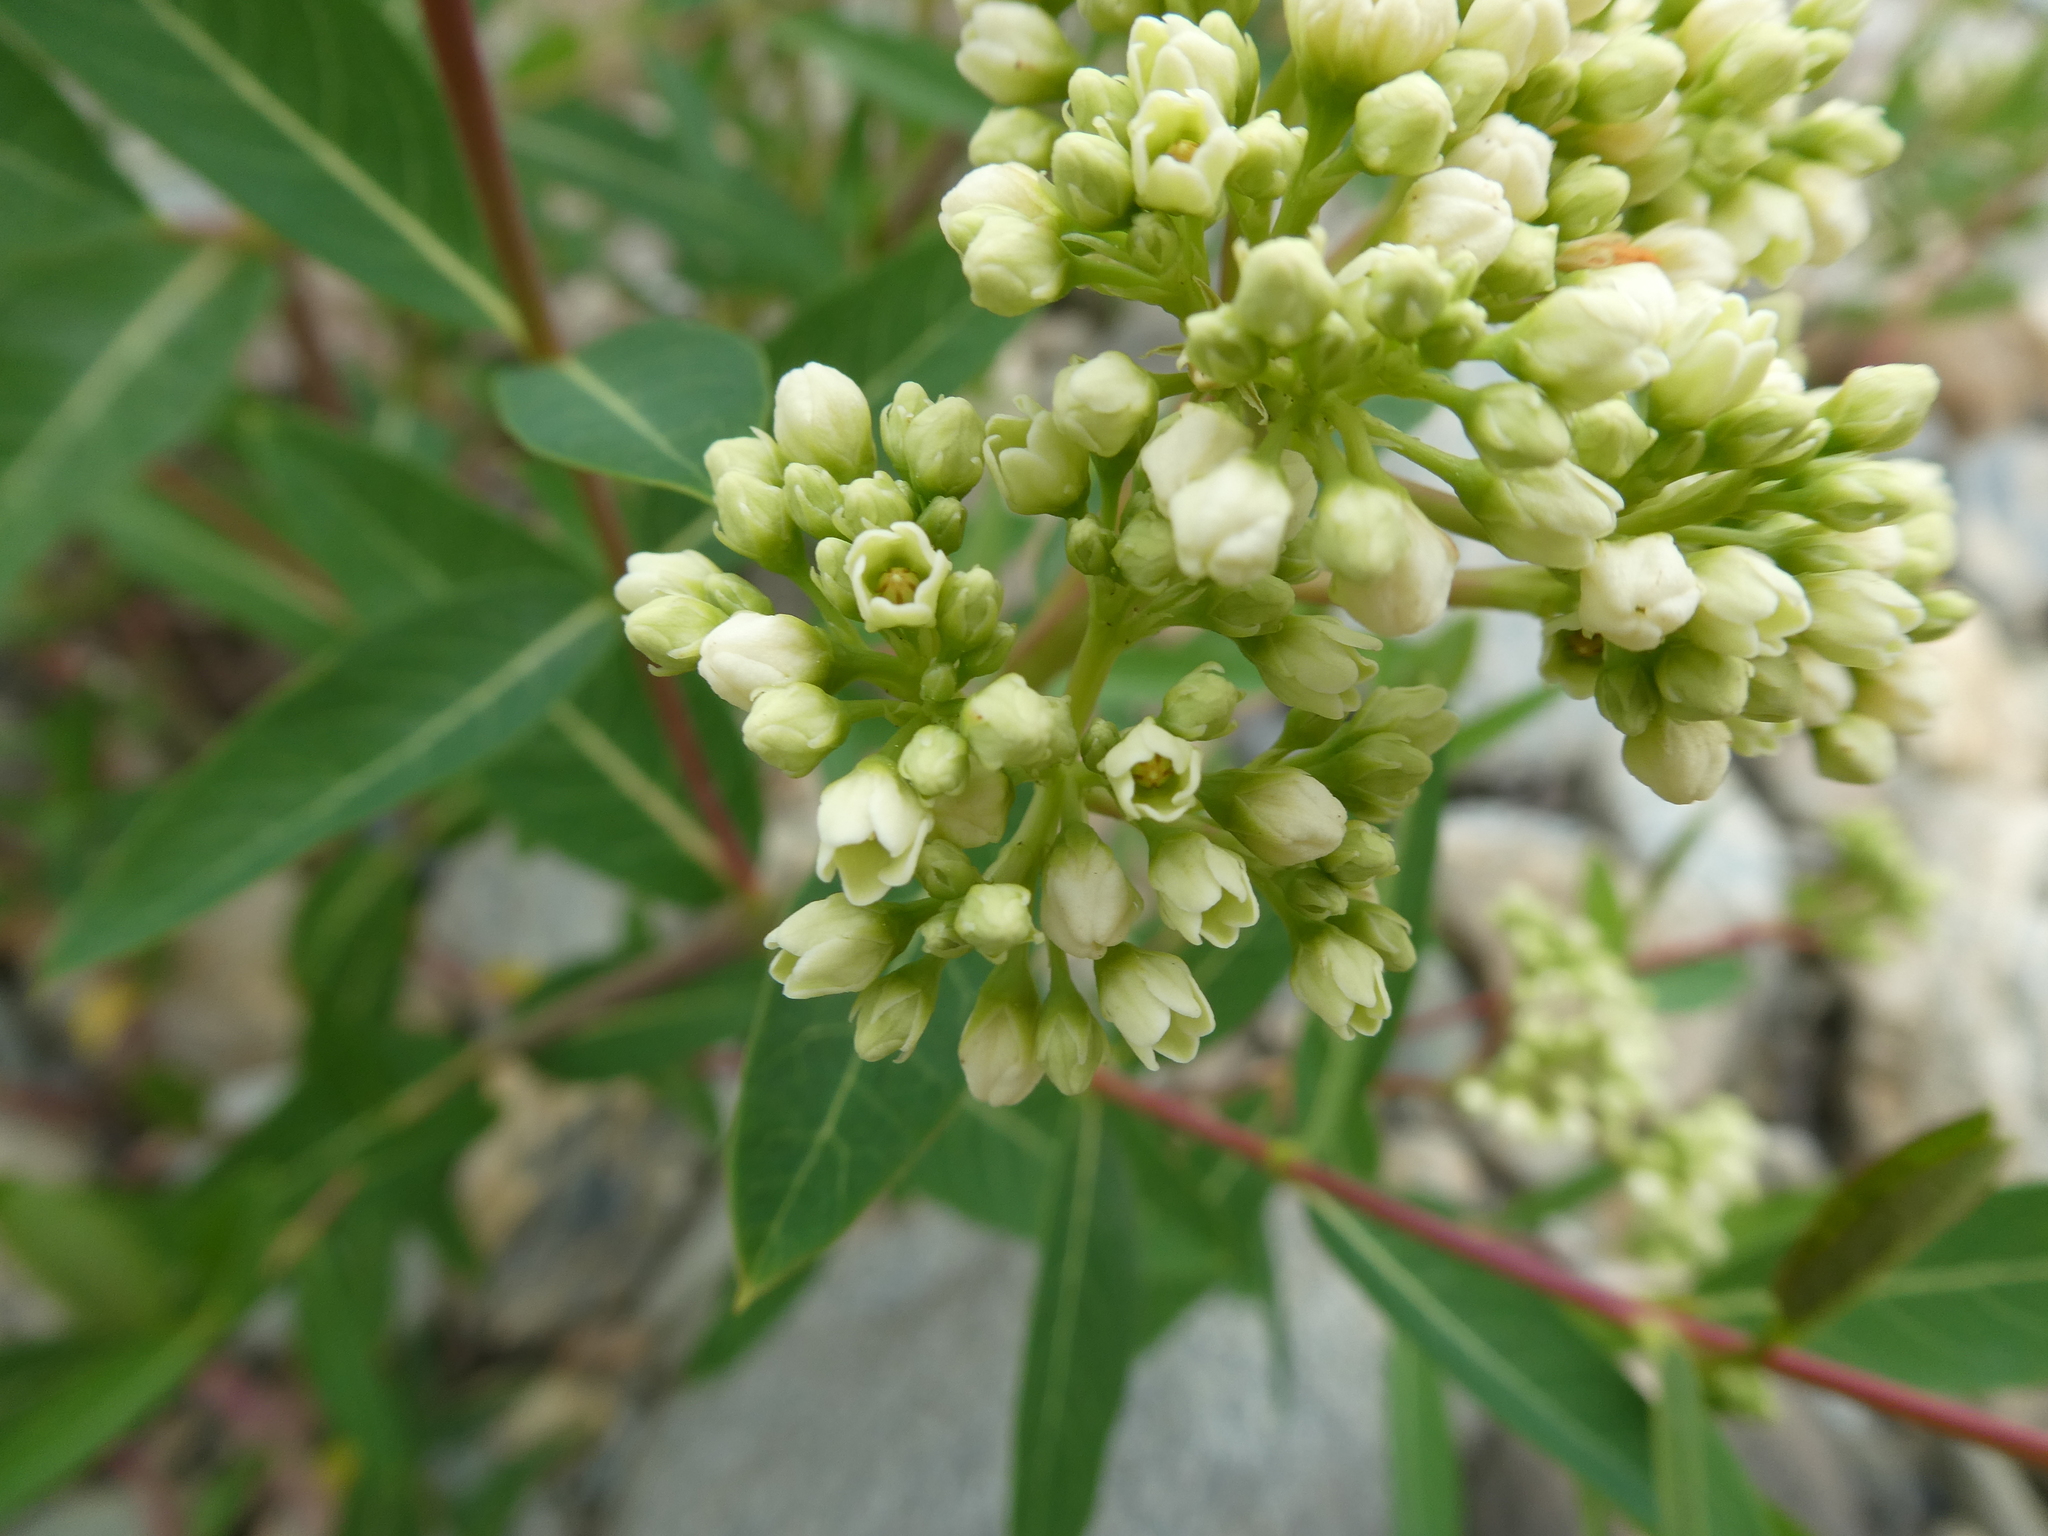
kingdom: Plantae
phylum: Tracheophyta
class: Magnoliopsida
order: Gentianales
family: Apocynaceae
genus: Apocynum
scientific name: Apocynum cannabinum
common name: Hemp dogbane
